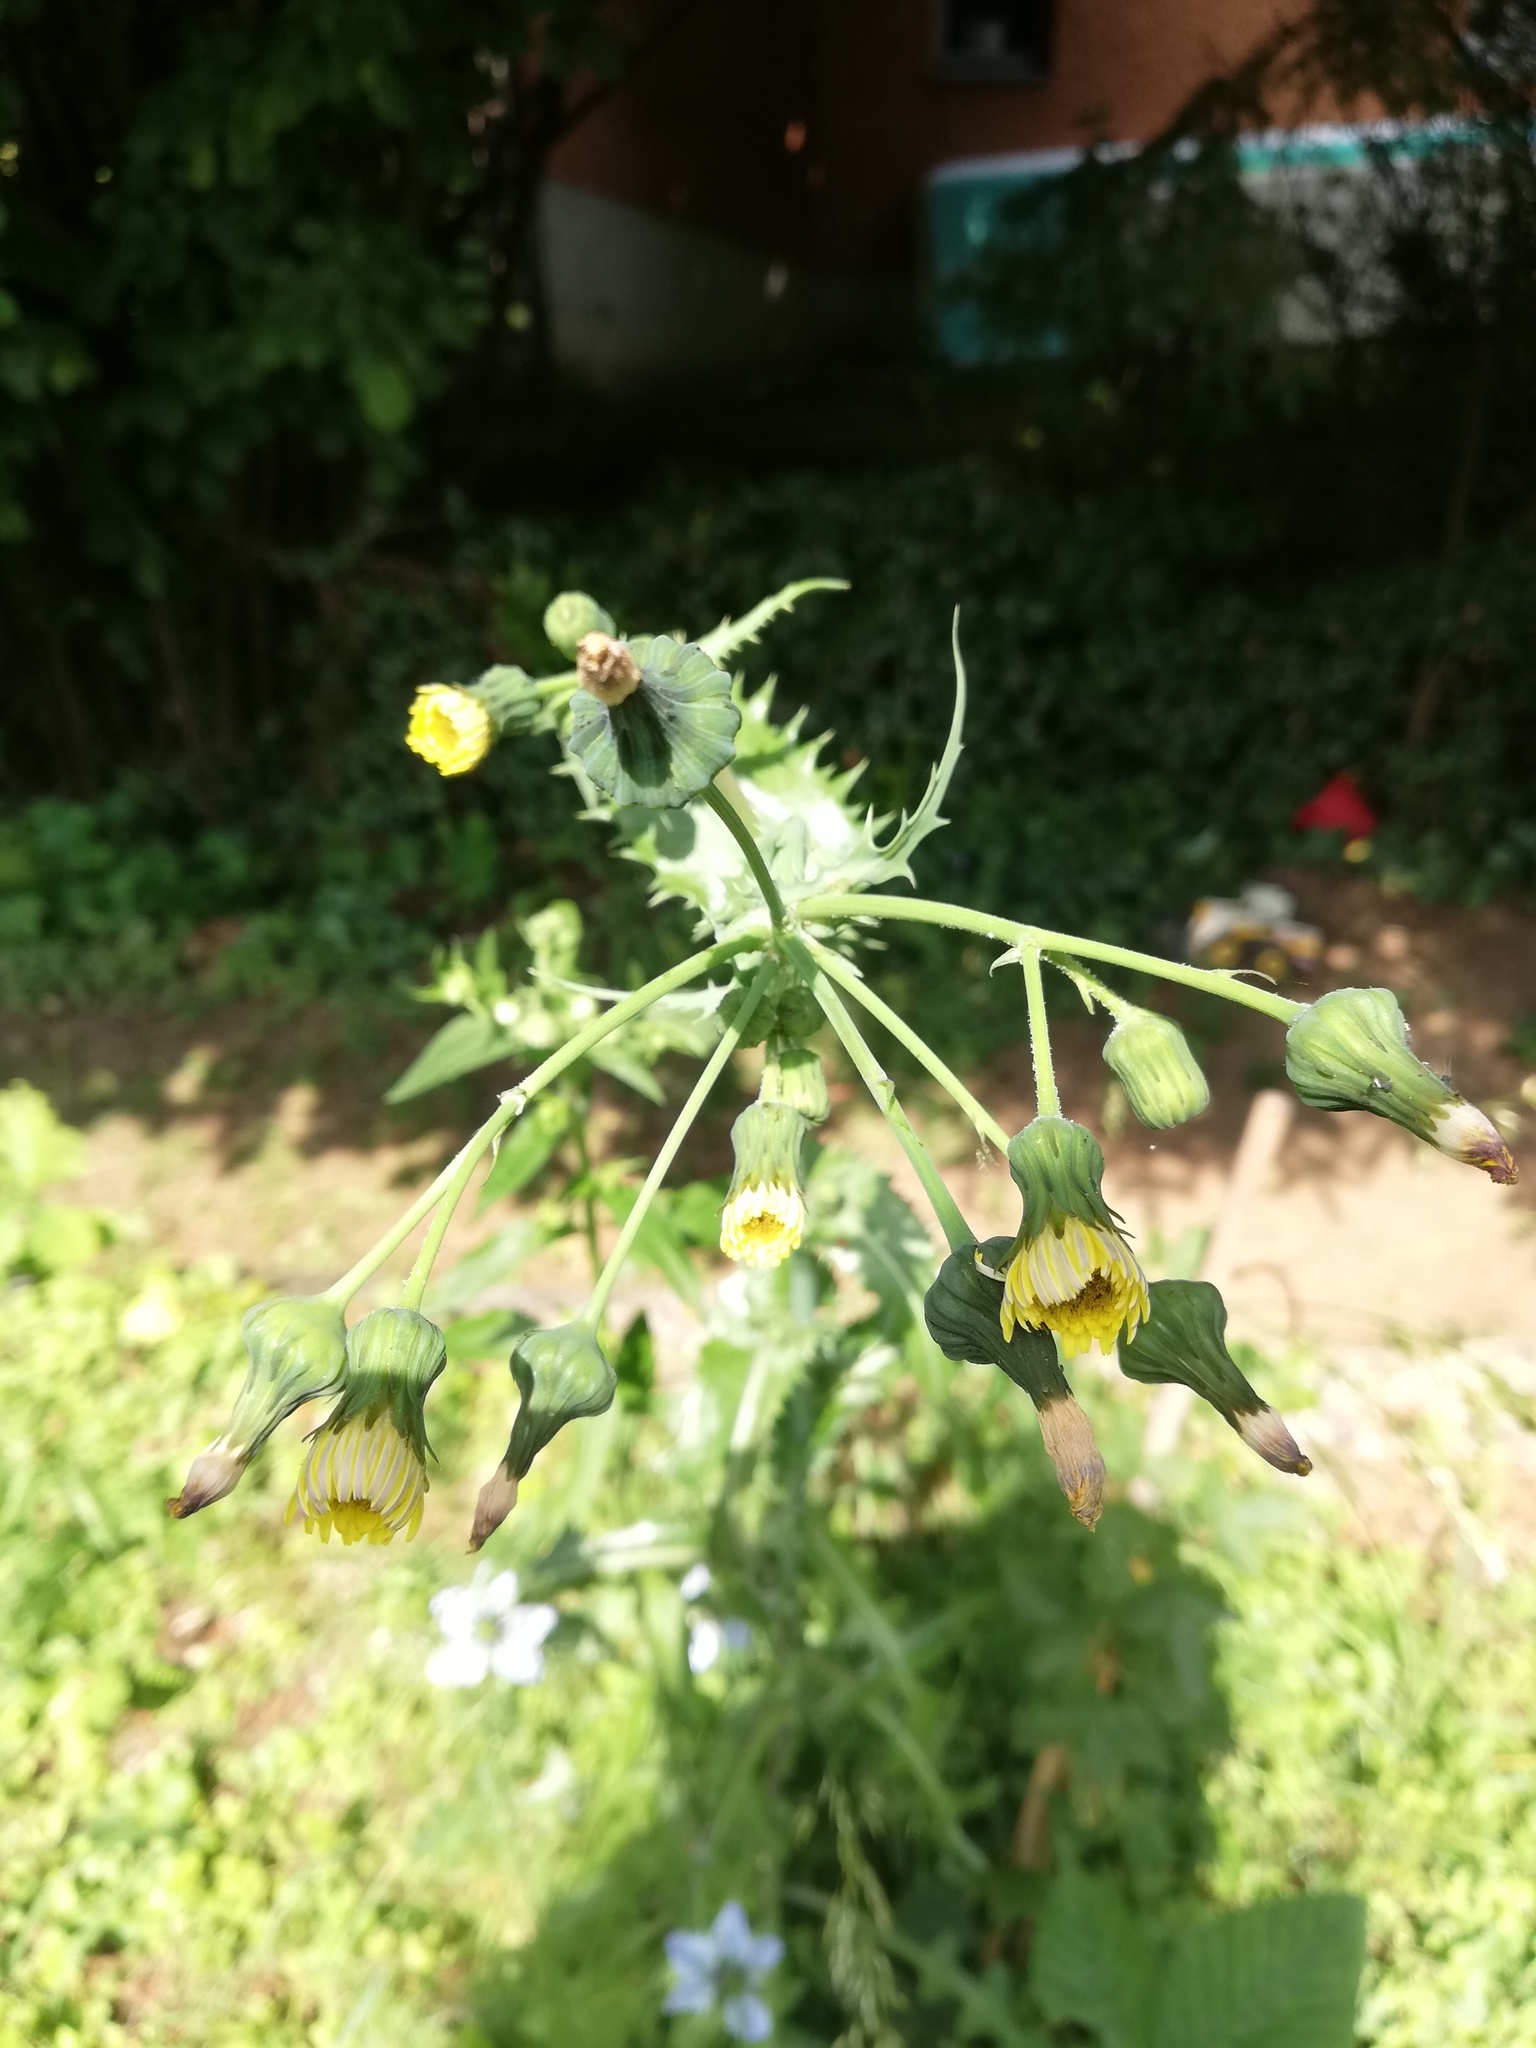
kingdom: Plantae
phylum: Tracheophyta
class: Magnoliopsida
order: Asterales
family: Asteraceae
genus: Sonchus
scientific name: Sonchus oleraceus
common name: Common sowthistle
